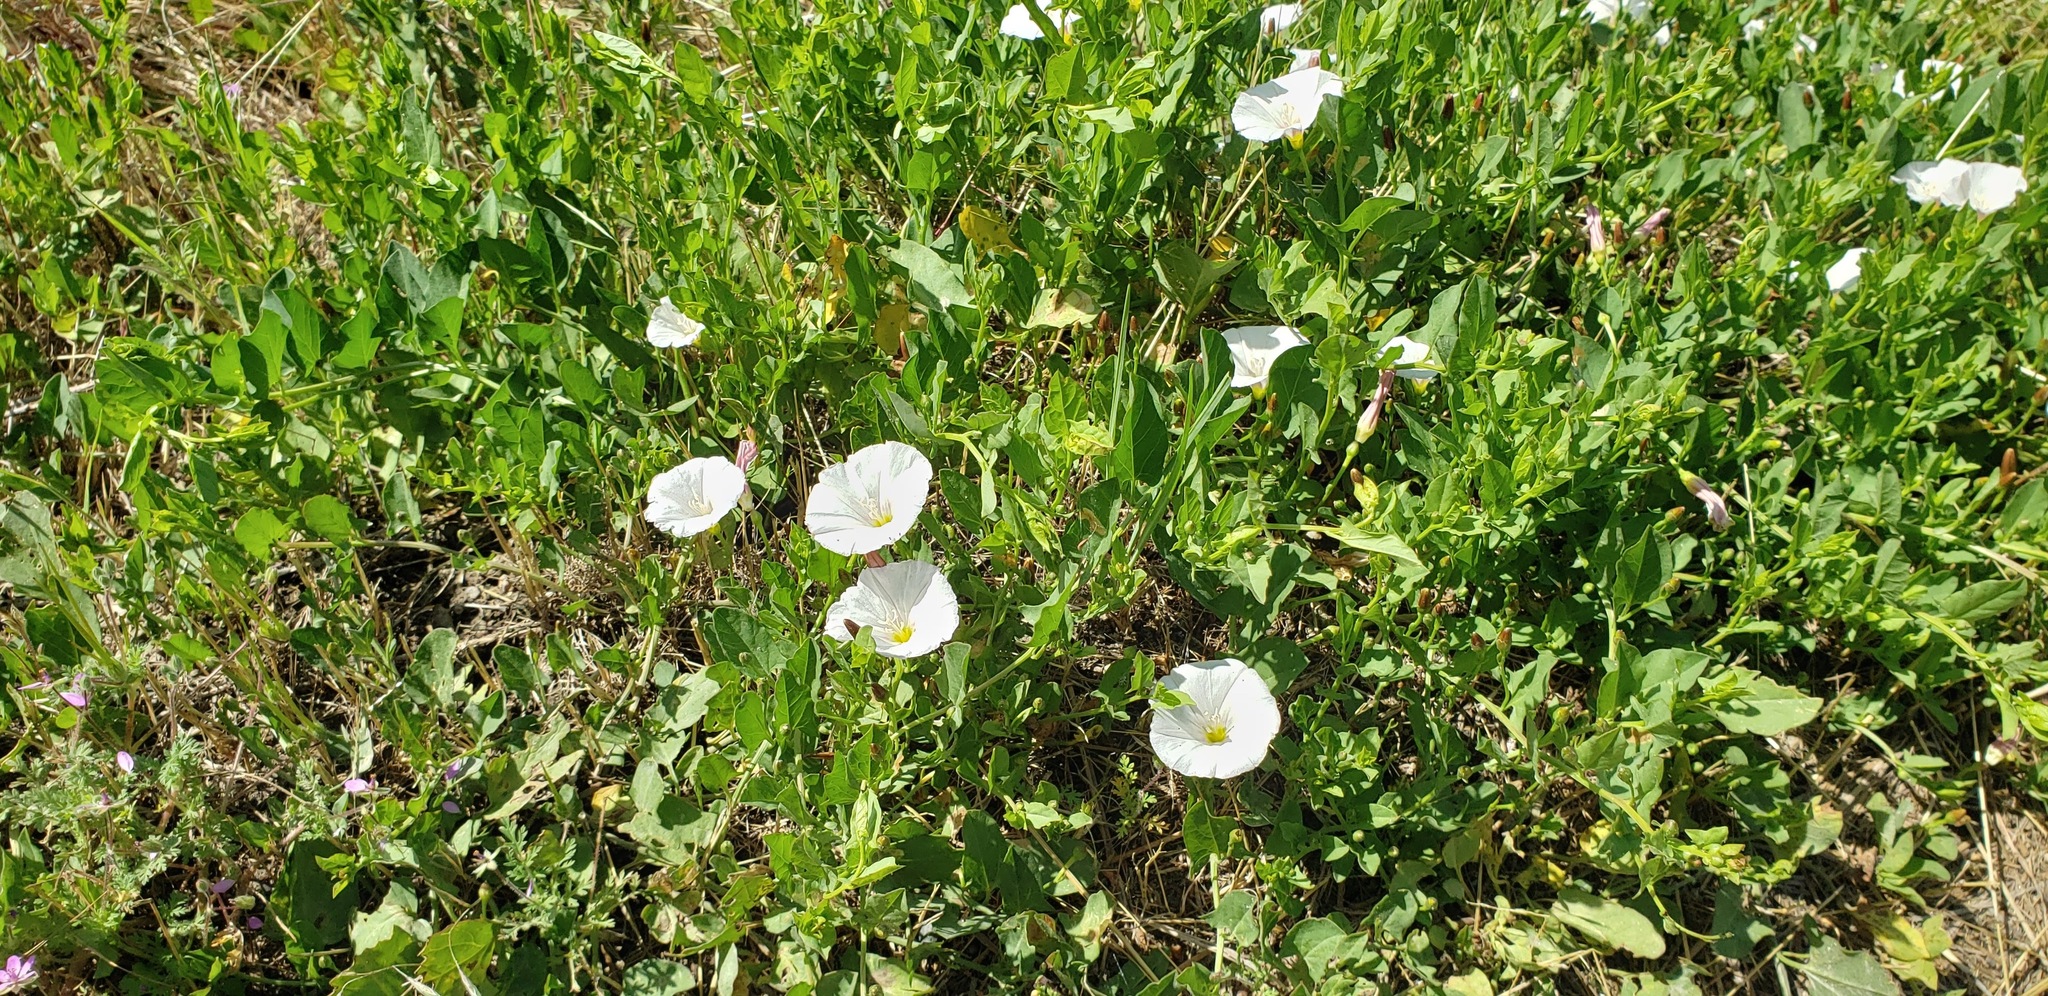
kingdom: Plantae
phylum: Tracheophyta
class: Magnoliopsida
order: Solanales
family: Convolvulaceae
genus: Convolvulus
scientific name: Convolvulus arvensis
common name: Field bindweed
